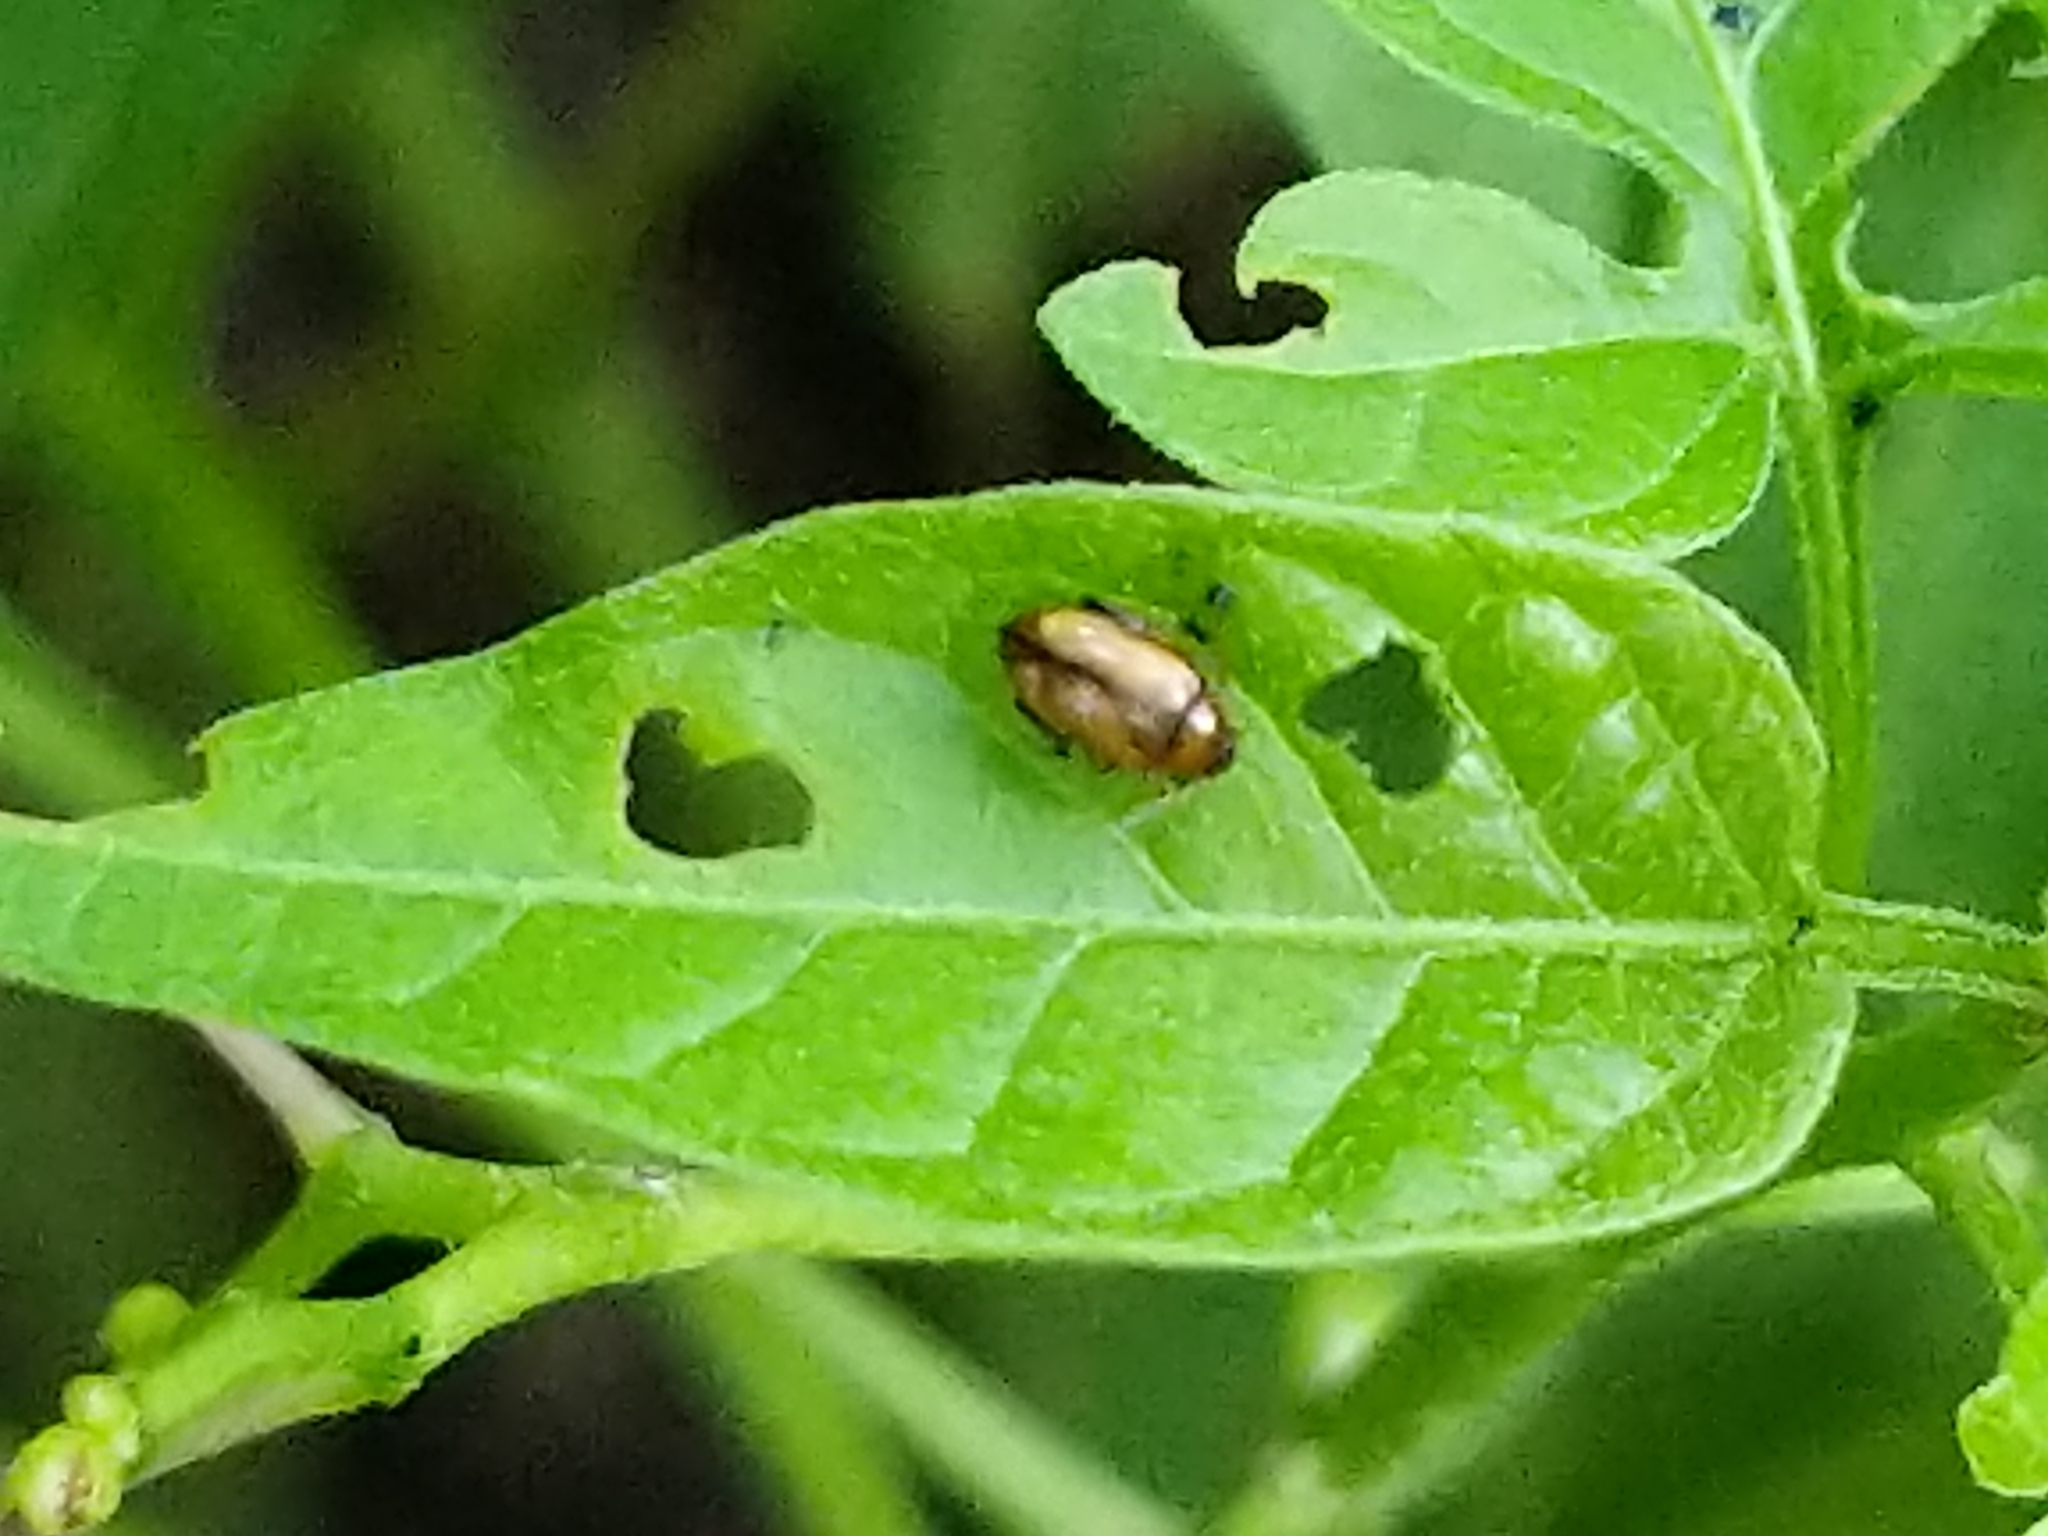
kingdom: Animalia
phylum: Arthropoda
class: Insecta
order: Coleoptera
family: Chrysomelidae
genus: Psylliodes
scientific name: Psylliodes affinis
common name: Potato flea beetle
